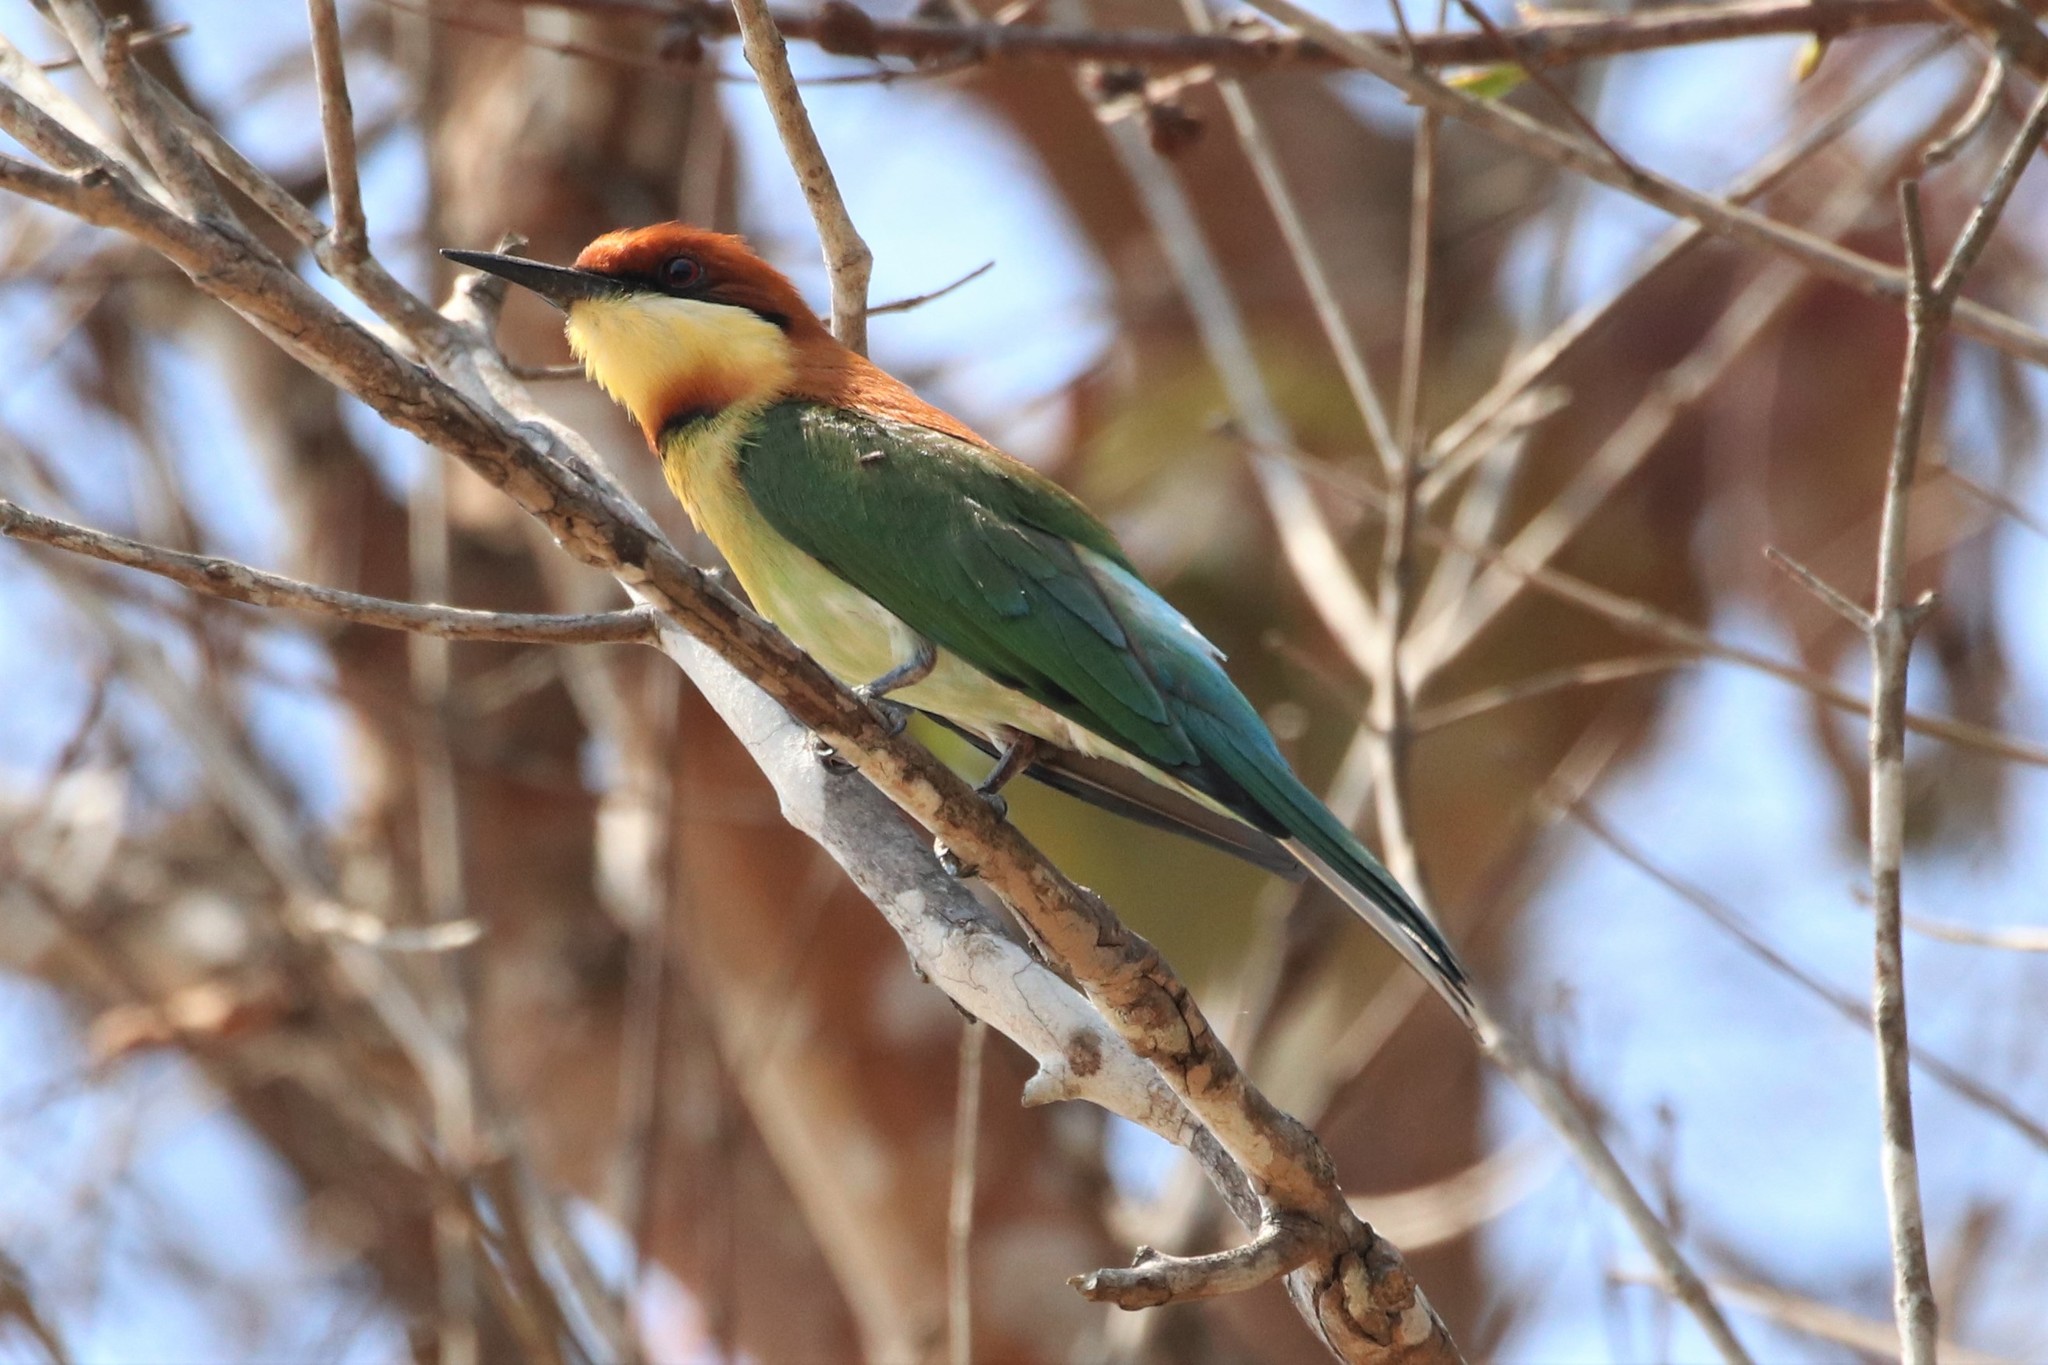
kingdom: Animalia
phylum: Chordata
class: Aves
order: Coraciiformes
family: Meropidae
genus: Merops
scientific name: Merops leschenaulti
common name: Chestnut-headed bee-eater
